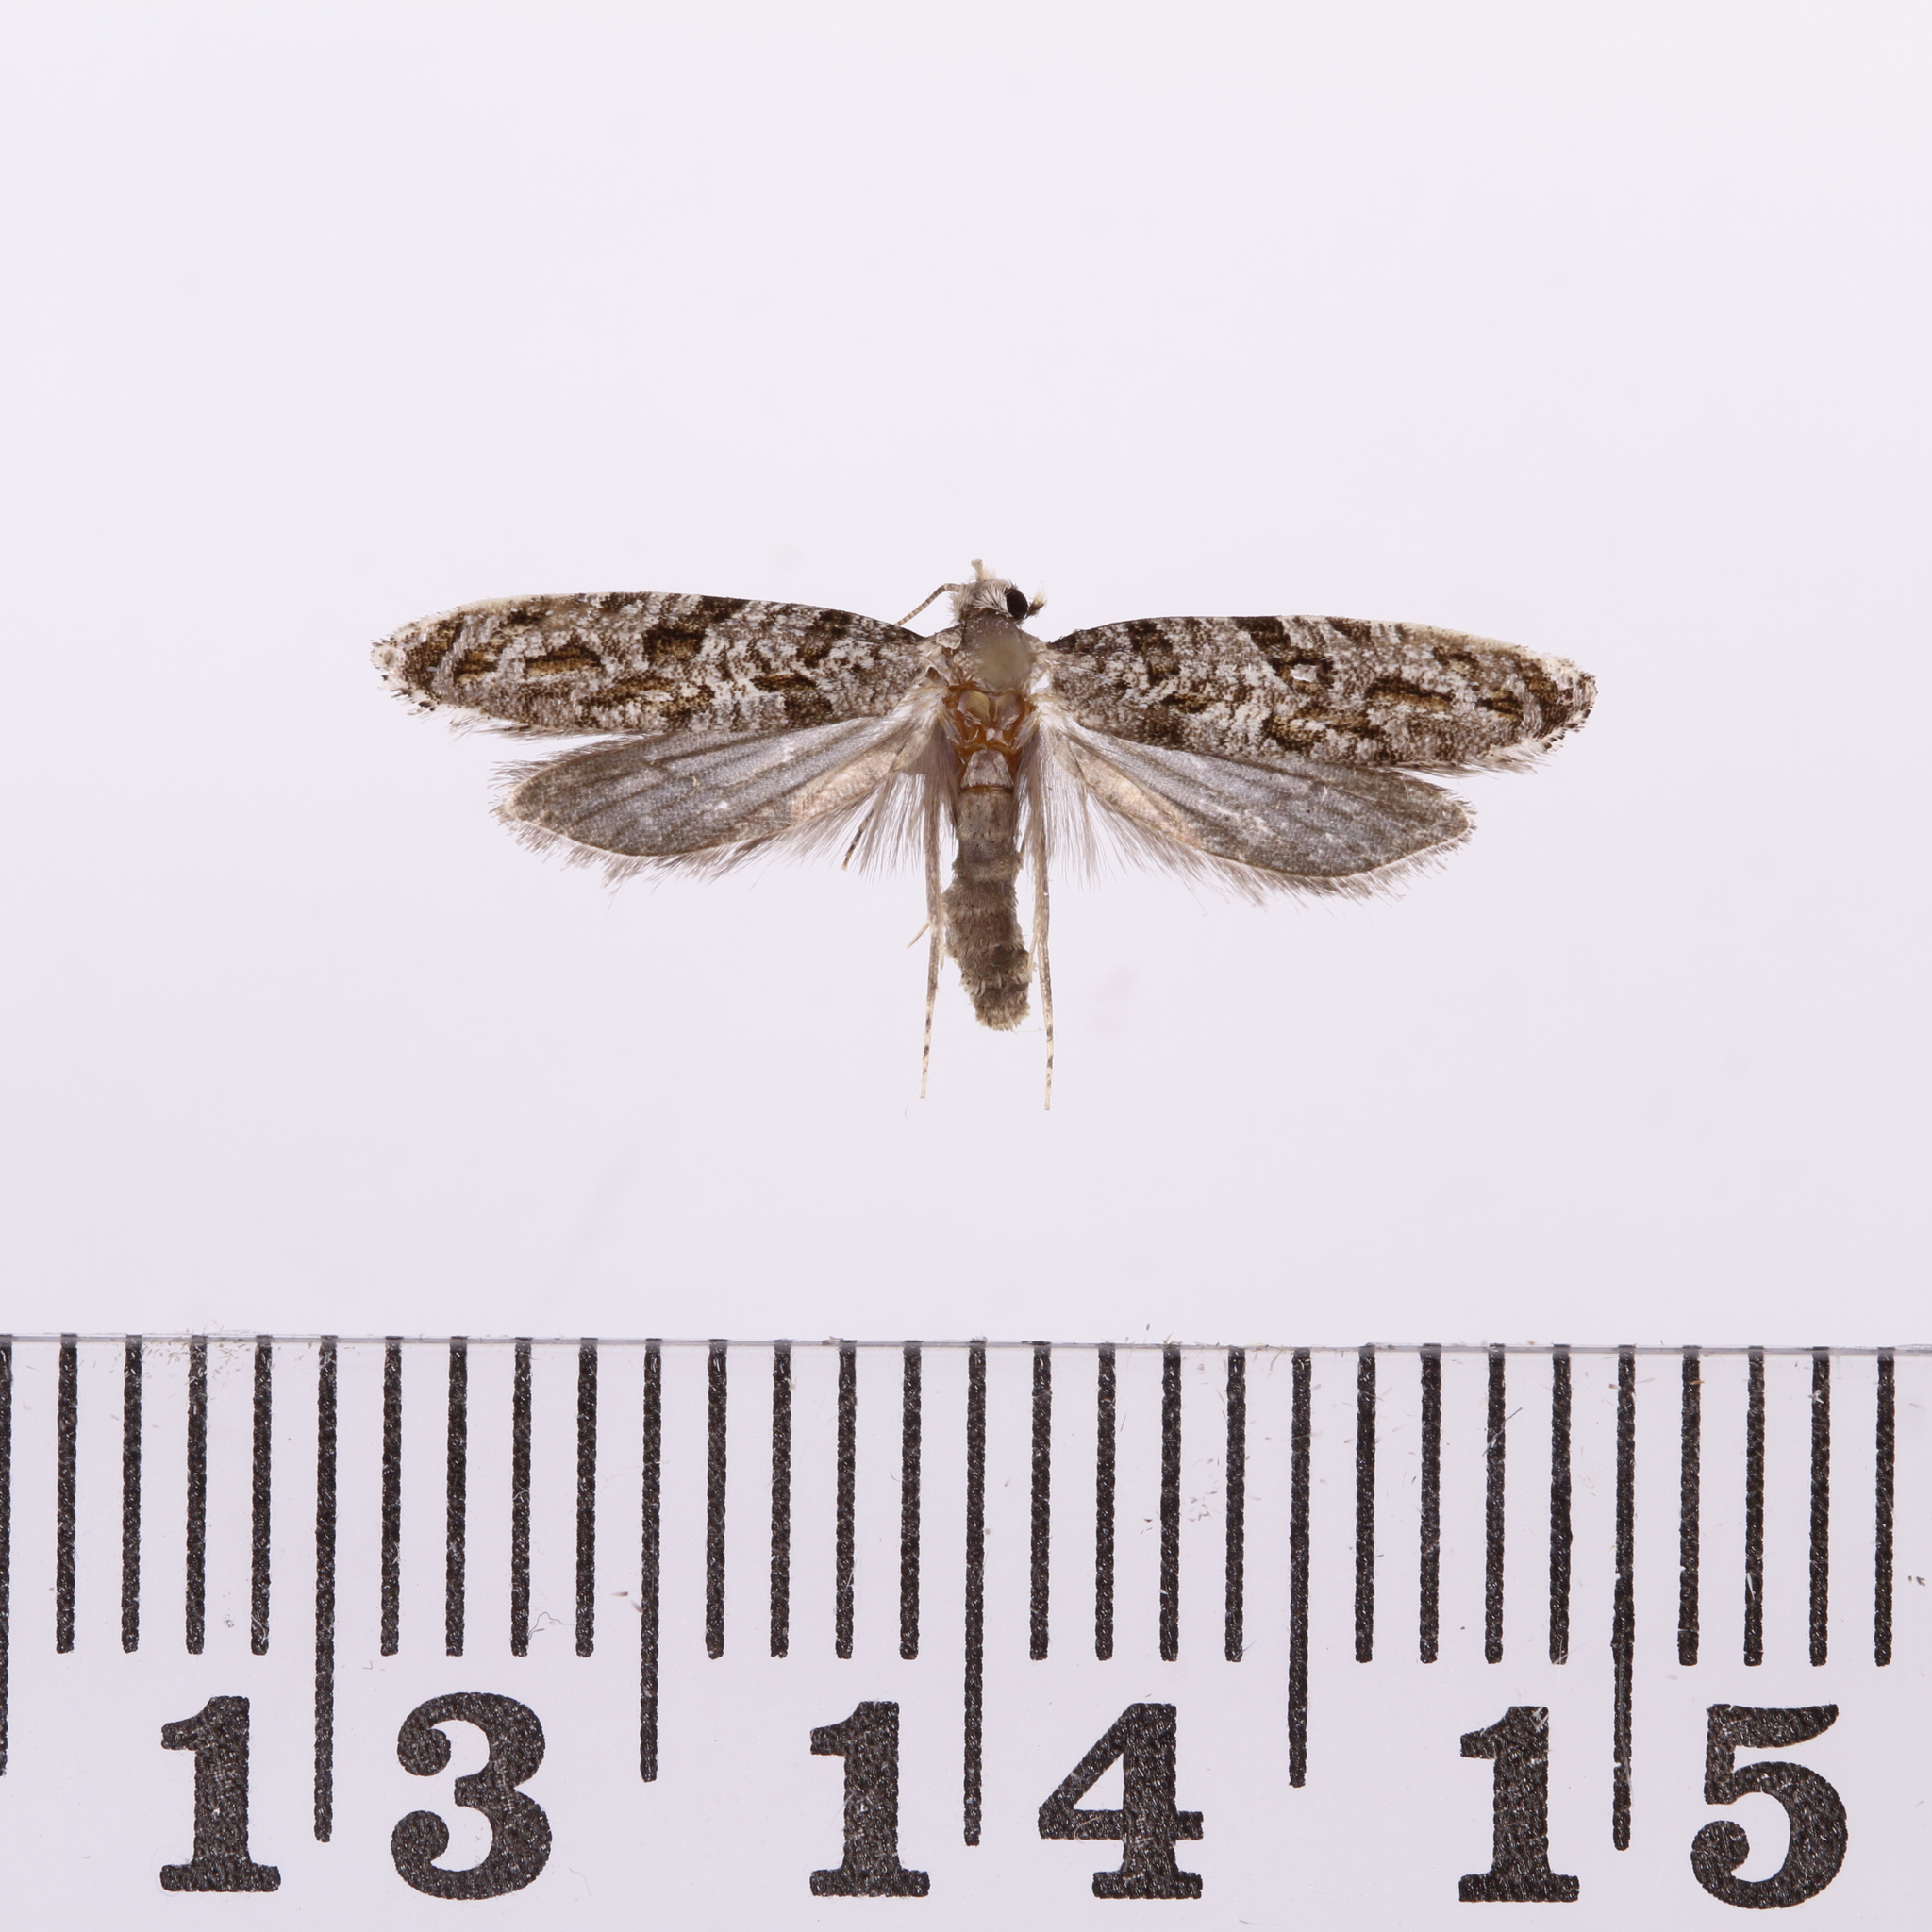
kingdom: Animalia
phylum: Arthropoda
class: Insecta
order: Lepidoptera
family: Tineidae
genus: Archyala
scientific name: Archyala paraglypta
